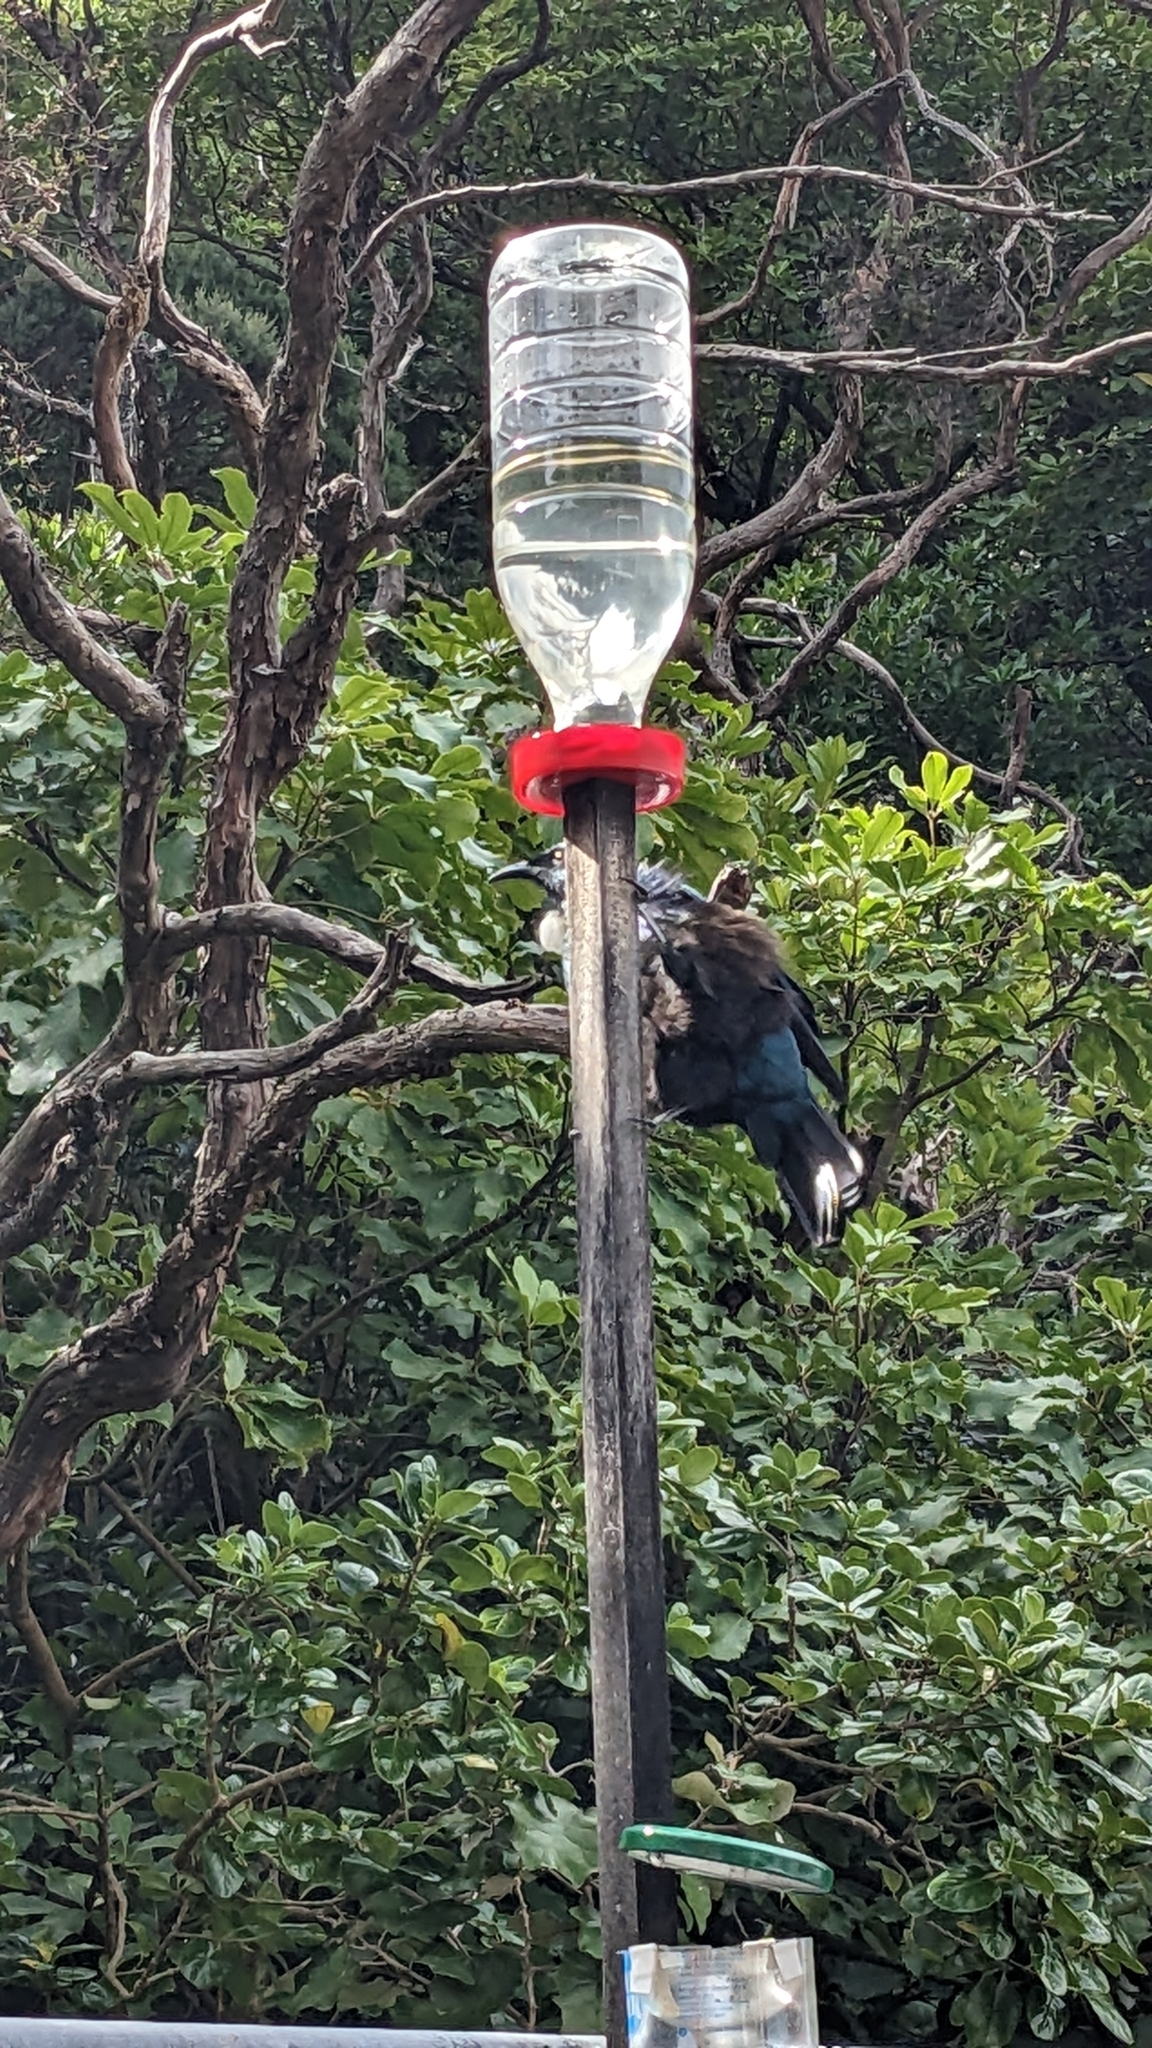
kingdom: Animalia
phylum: Chordata
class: Aves
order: Passeriformes
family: Meliphagidae
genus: Prosthemadera
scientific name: Prosthemadera novaeseelandiae
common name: Tui
